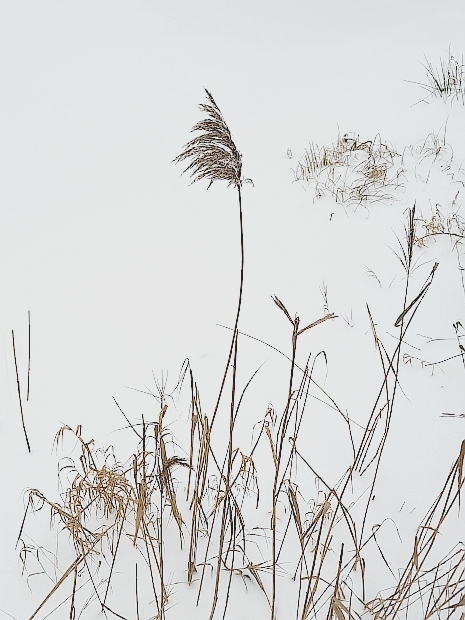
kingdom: Plantae
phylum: Tracheophyta
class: Liliopsida
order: Poales
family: Poaceae
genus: Phragmites
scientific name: Phragmites australis
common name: Common reed
